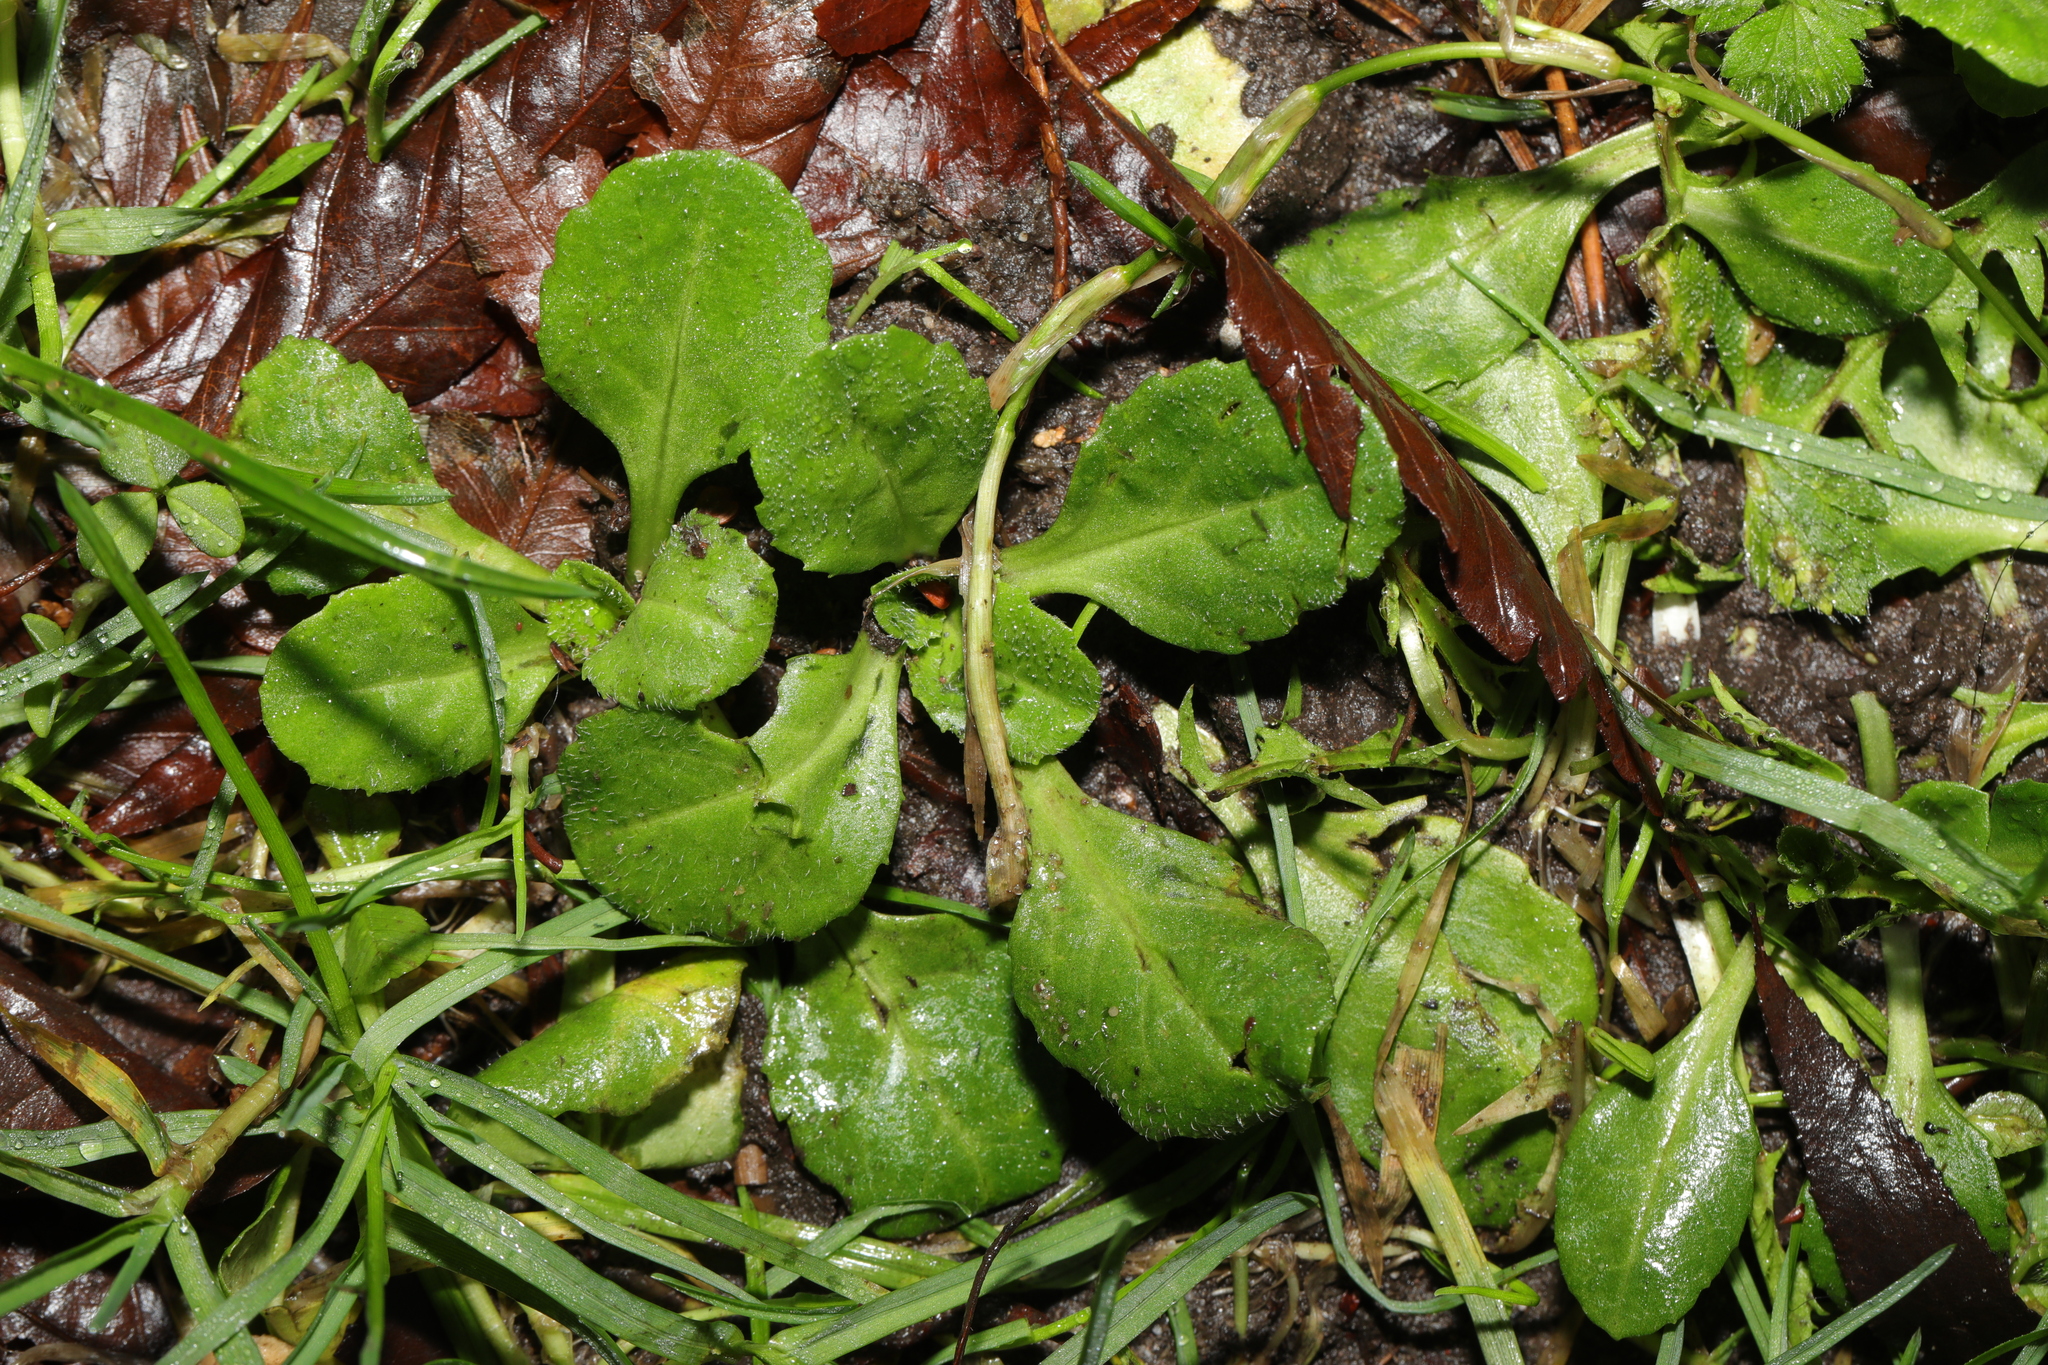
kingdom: Plantae
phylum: Tracheophyta
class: Magnoliopsida
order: Asterales
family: Asteraceae
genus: Bellis
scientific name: Bellis perennis
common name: Lawndaisy
